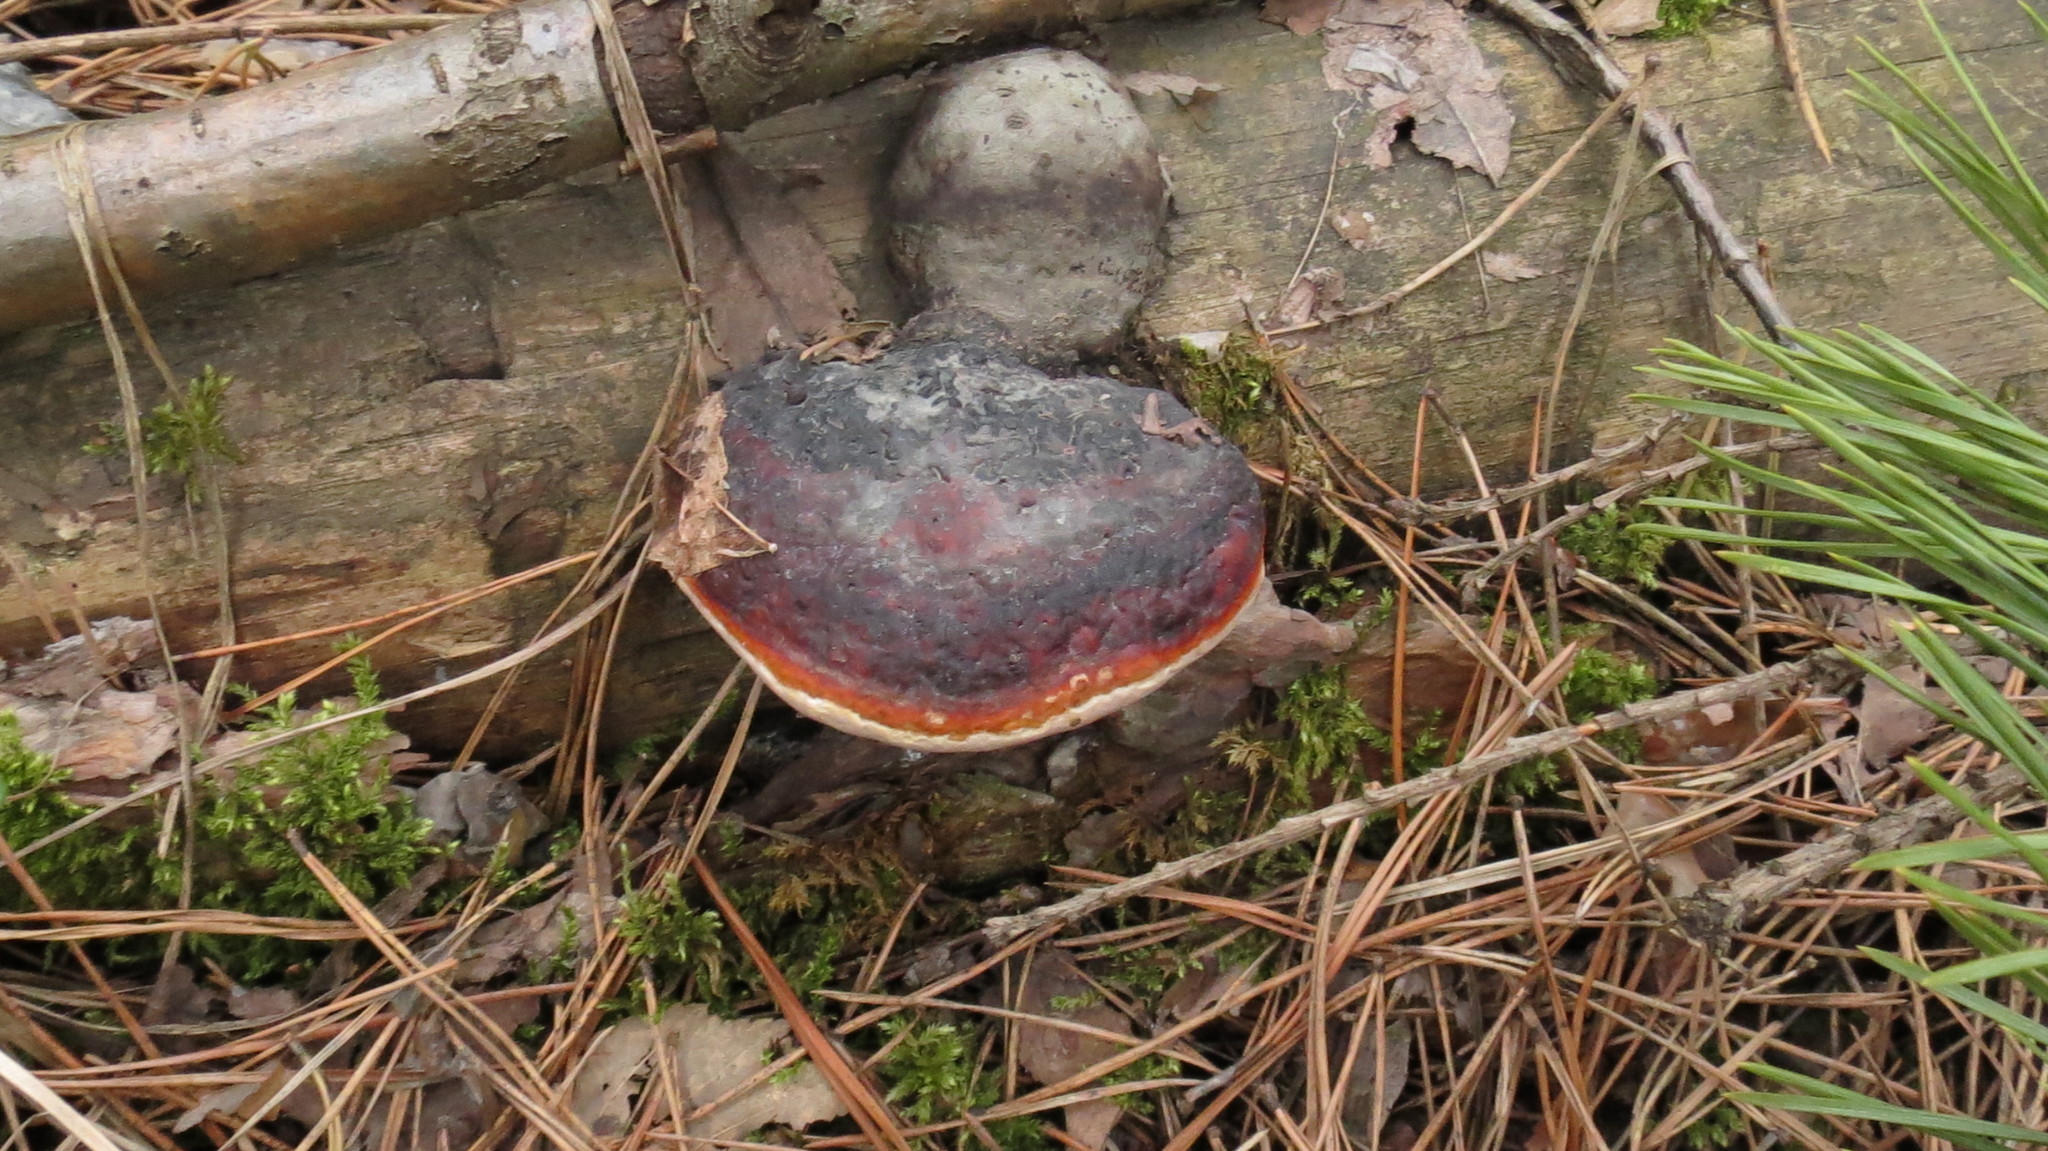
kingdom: Fungi
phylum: Basidiomycota
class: Agaricomycetes
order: Polyporales
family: Fomitopsidaceae
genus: Fomitopsis
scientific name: Fomitopsis pinicola
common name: Red-belted bracket
